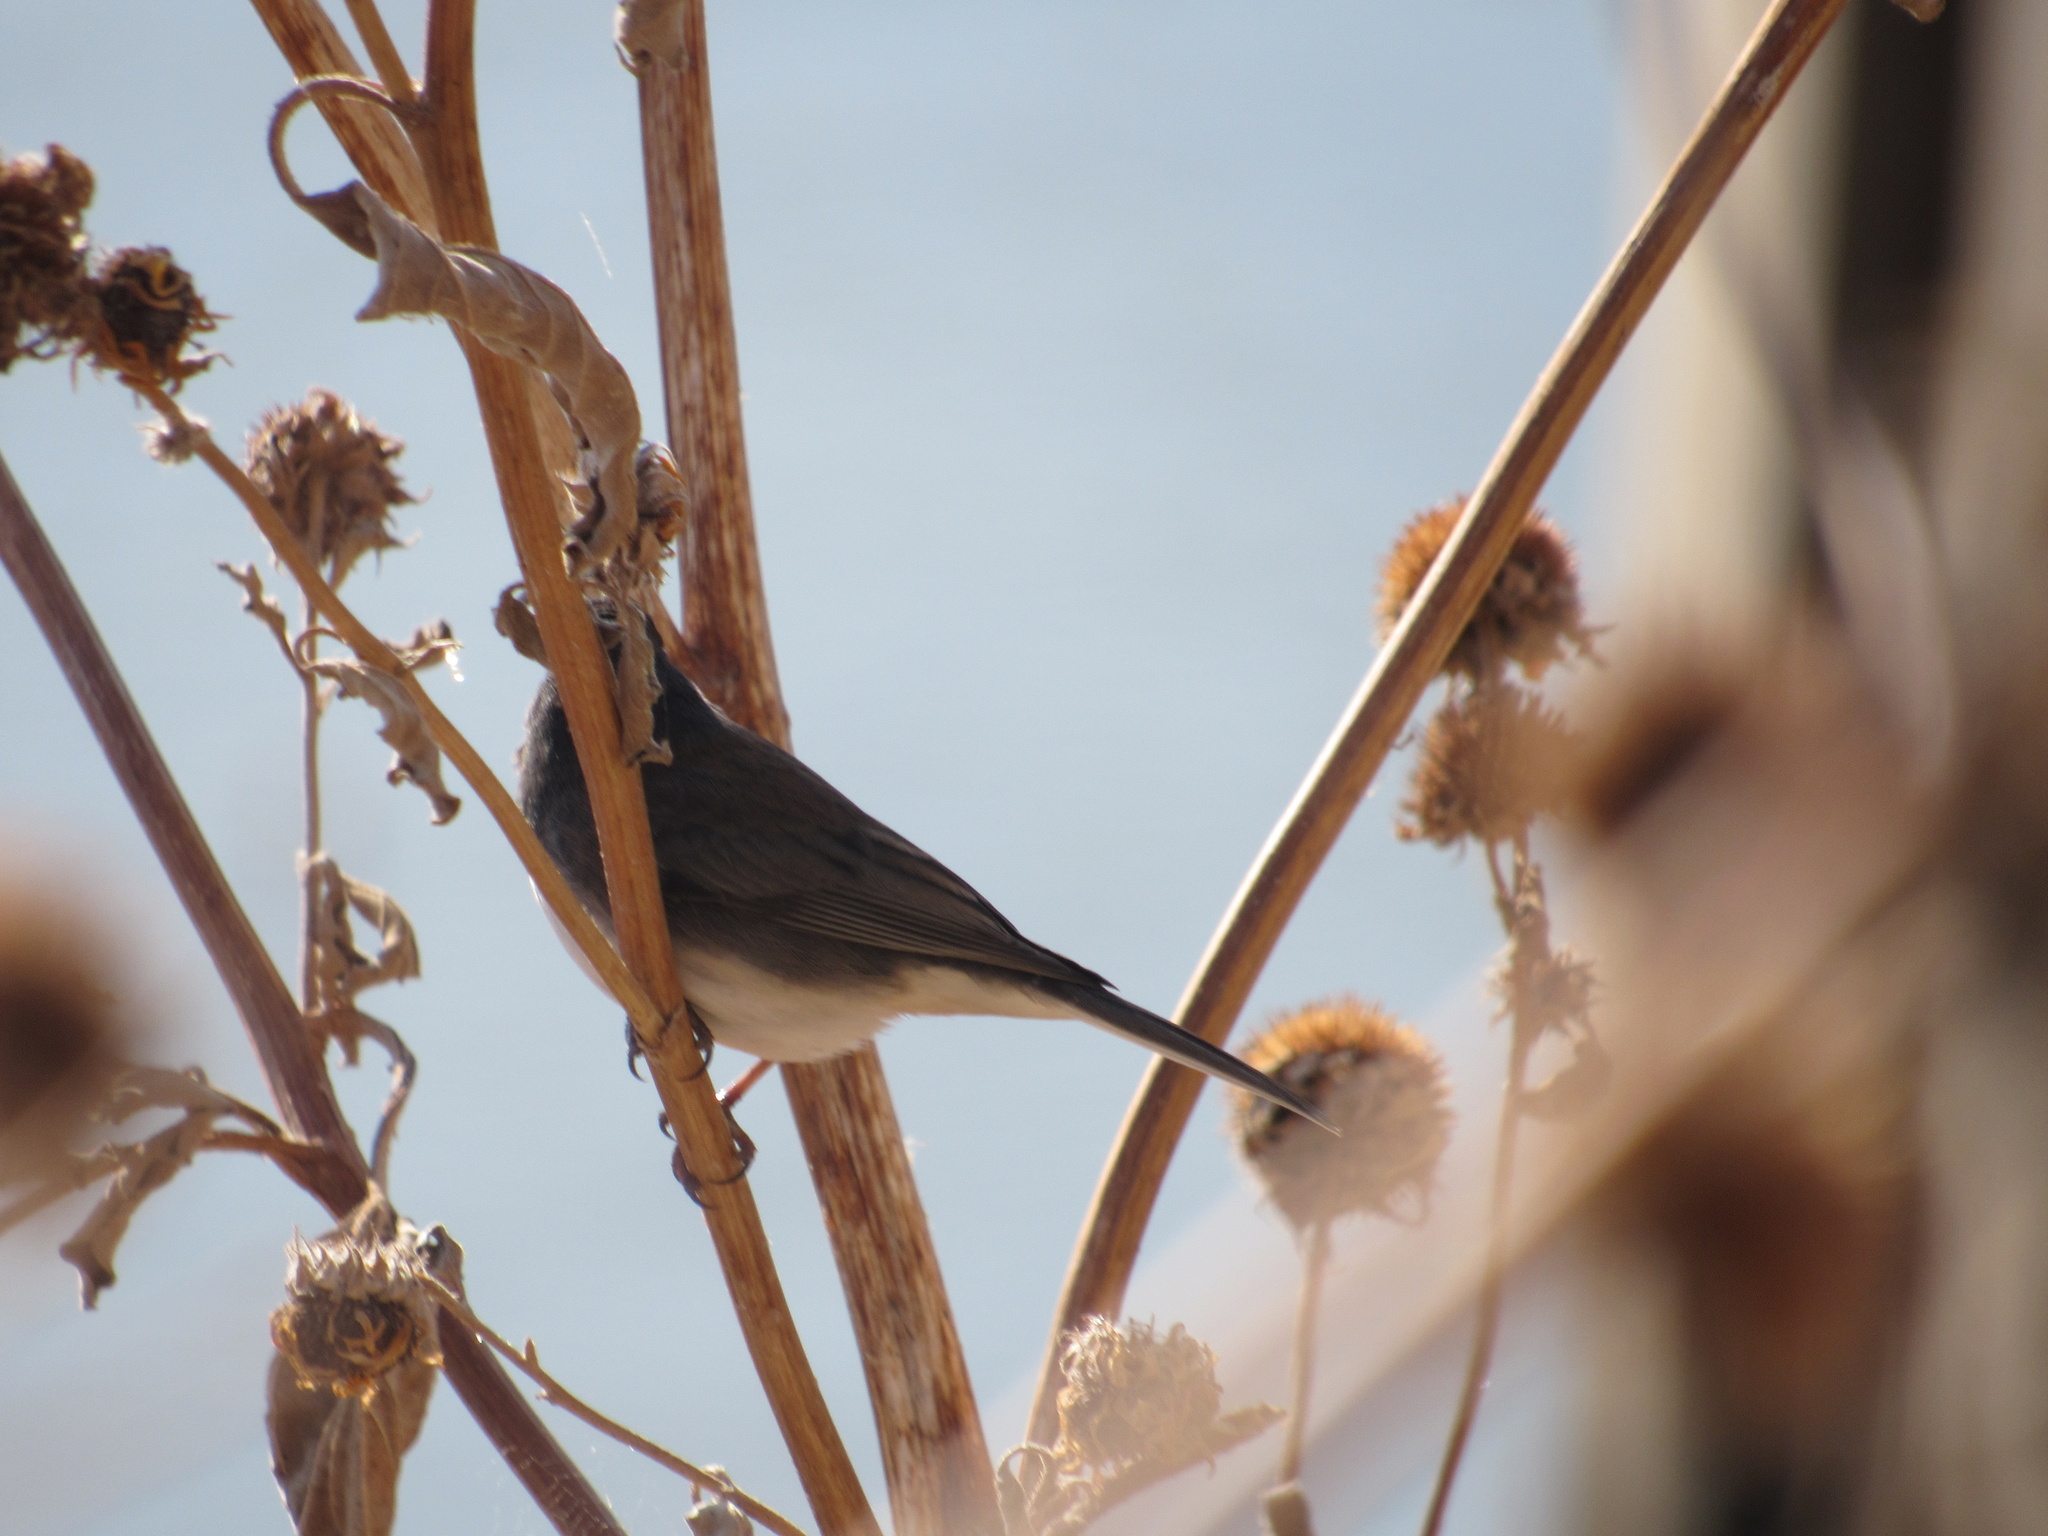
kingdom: Animalia
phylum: Chordata
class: Aves
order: Passeriformes
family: Passerellidae
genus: Junco
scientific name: Junco hyemalis
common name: Dark-eyed junco
